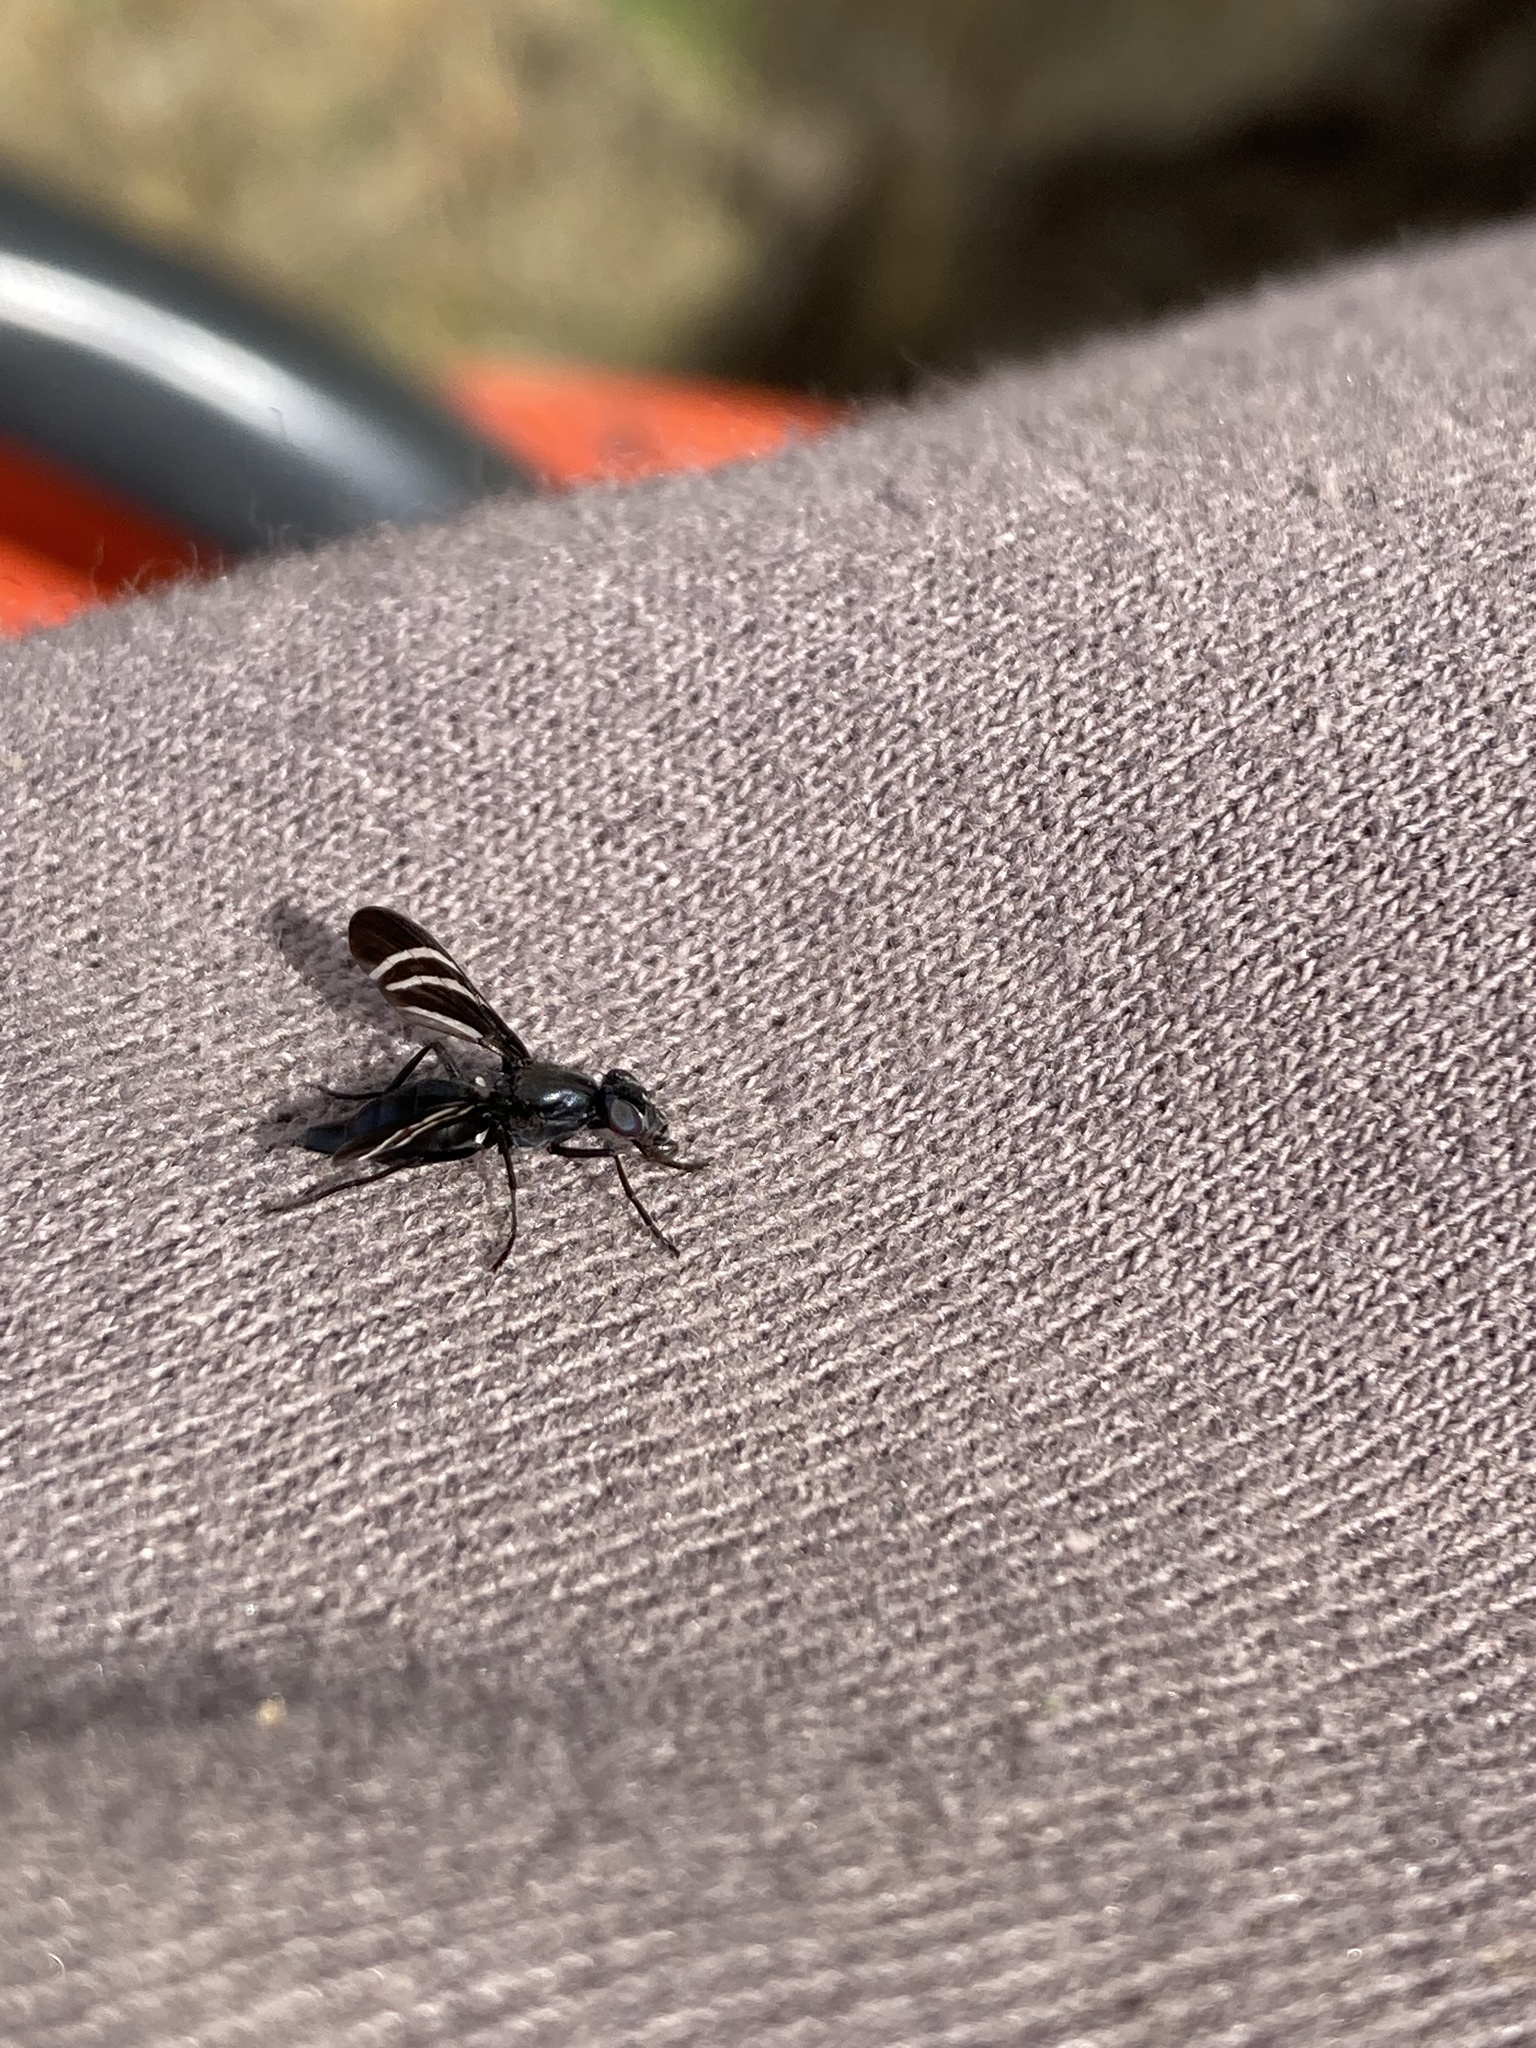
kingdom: Animalia
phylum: Arthropoda
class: Insecta
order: Diptera
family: Ulidiidae
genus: Tritoxa
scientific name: Tritoxa flexa
